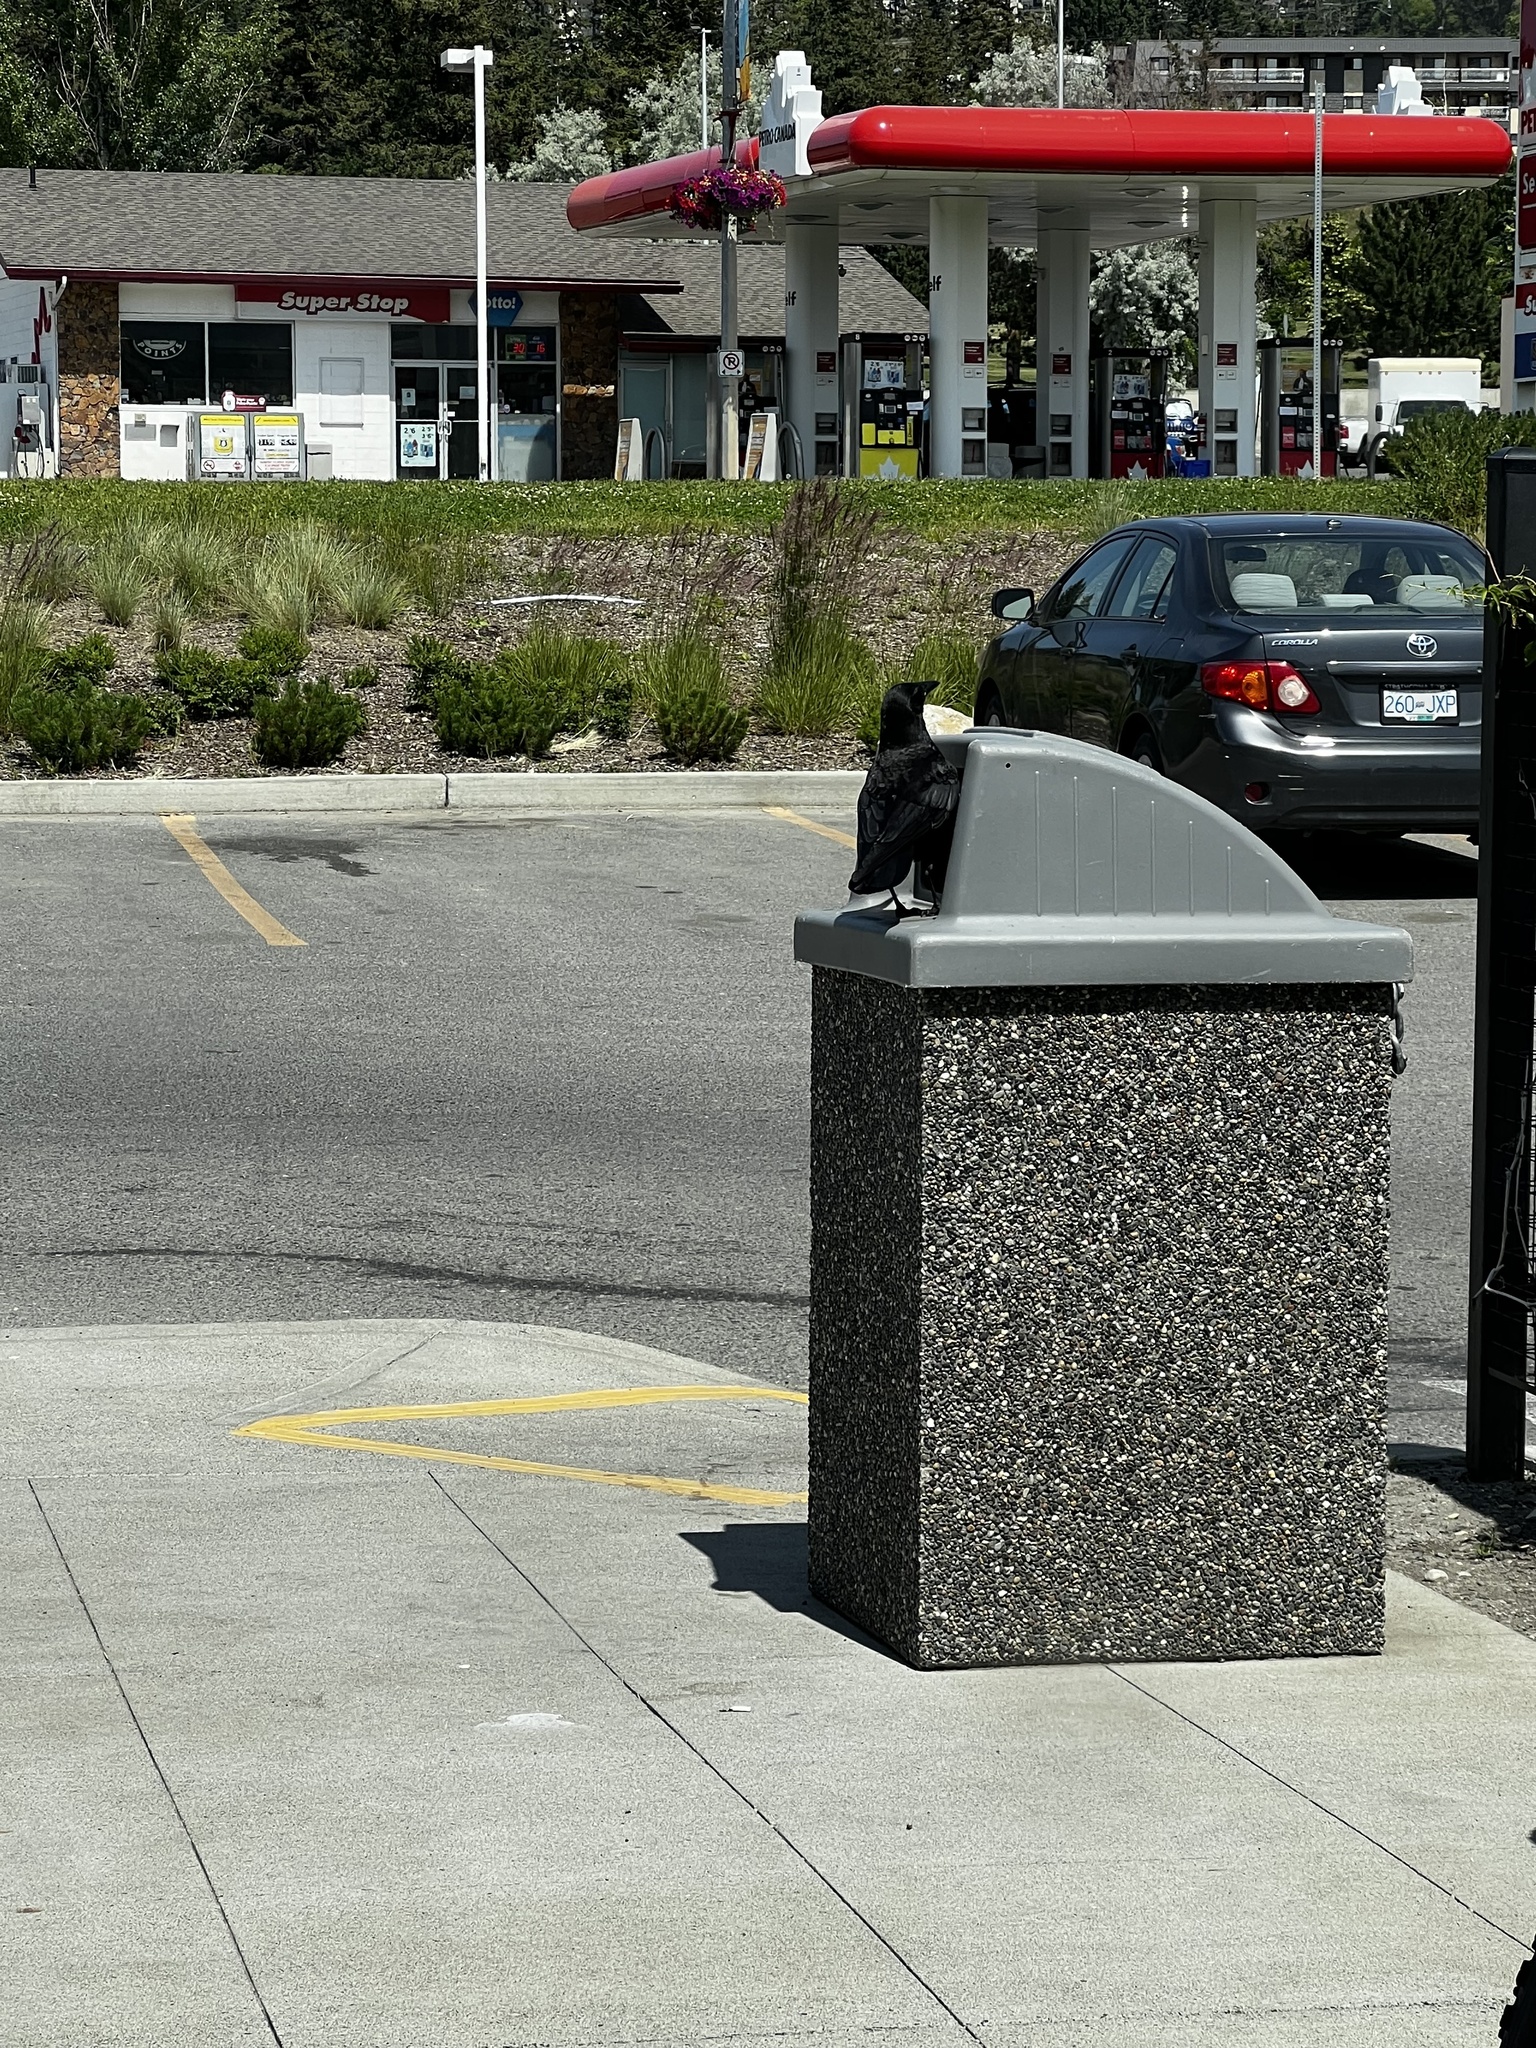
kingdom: Animalia
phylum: Chordata
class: Aves
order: Passeriformes
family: Corvidae
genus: Corvus
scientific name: Corvus brachyrhynchos
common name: American crow
